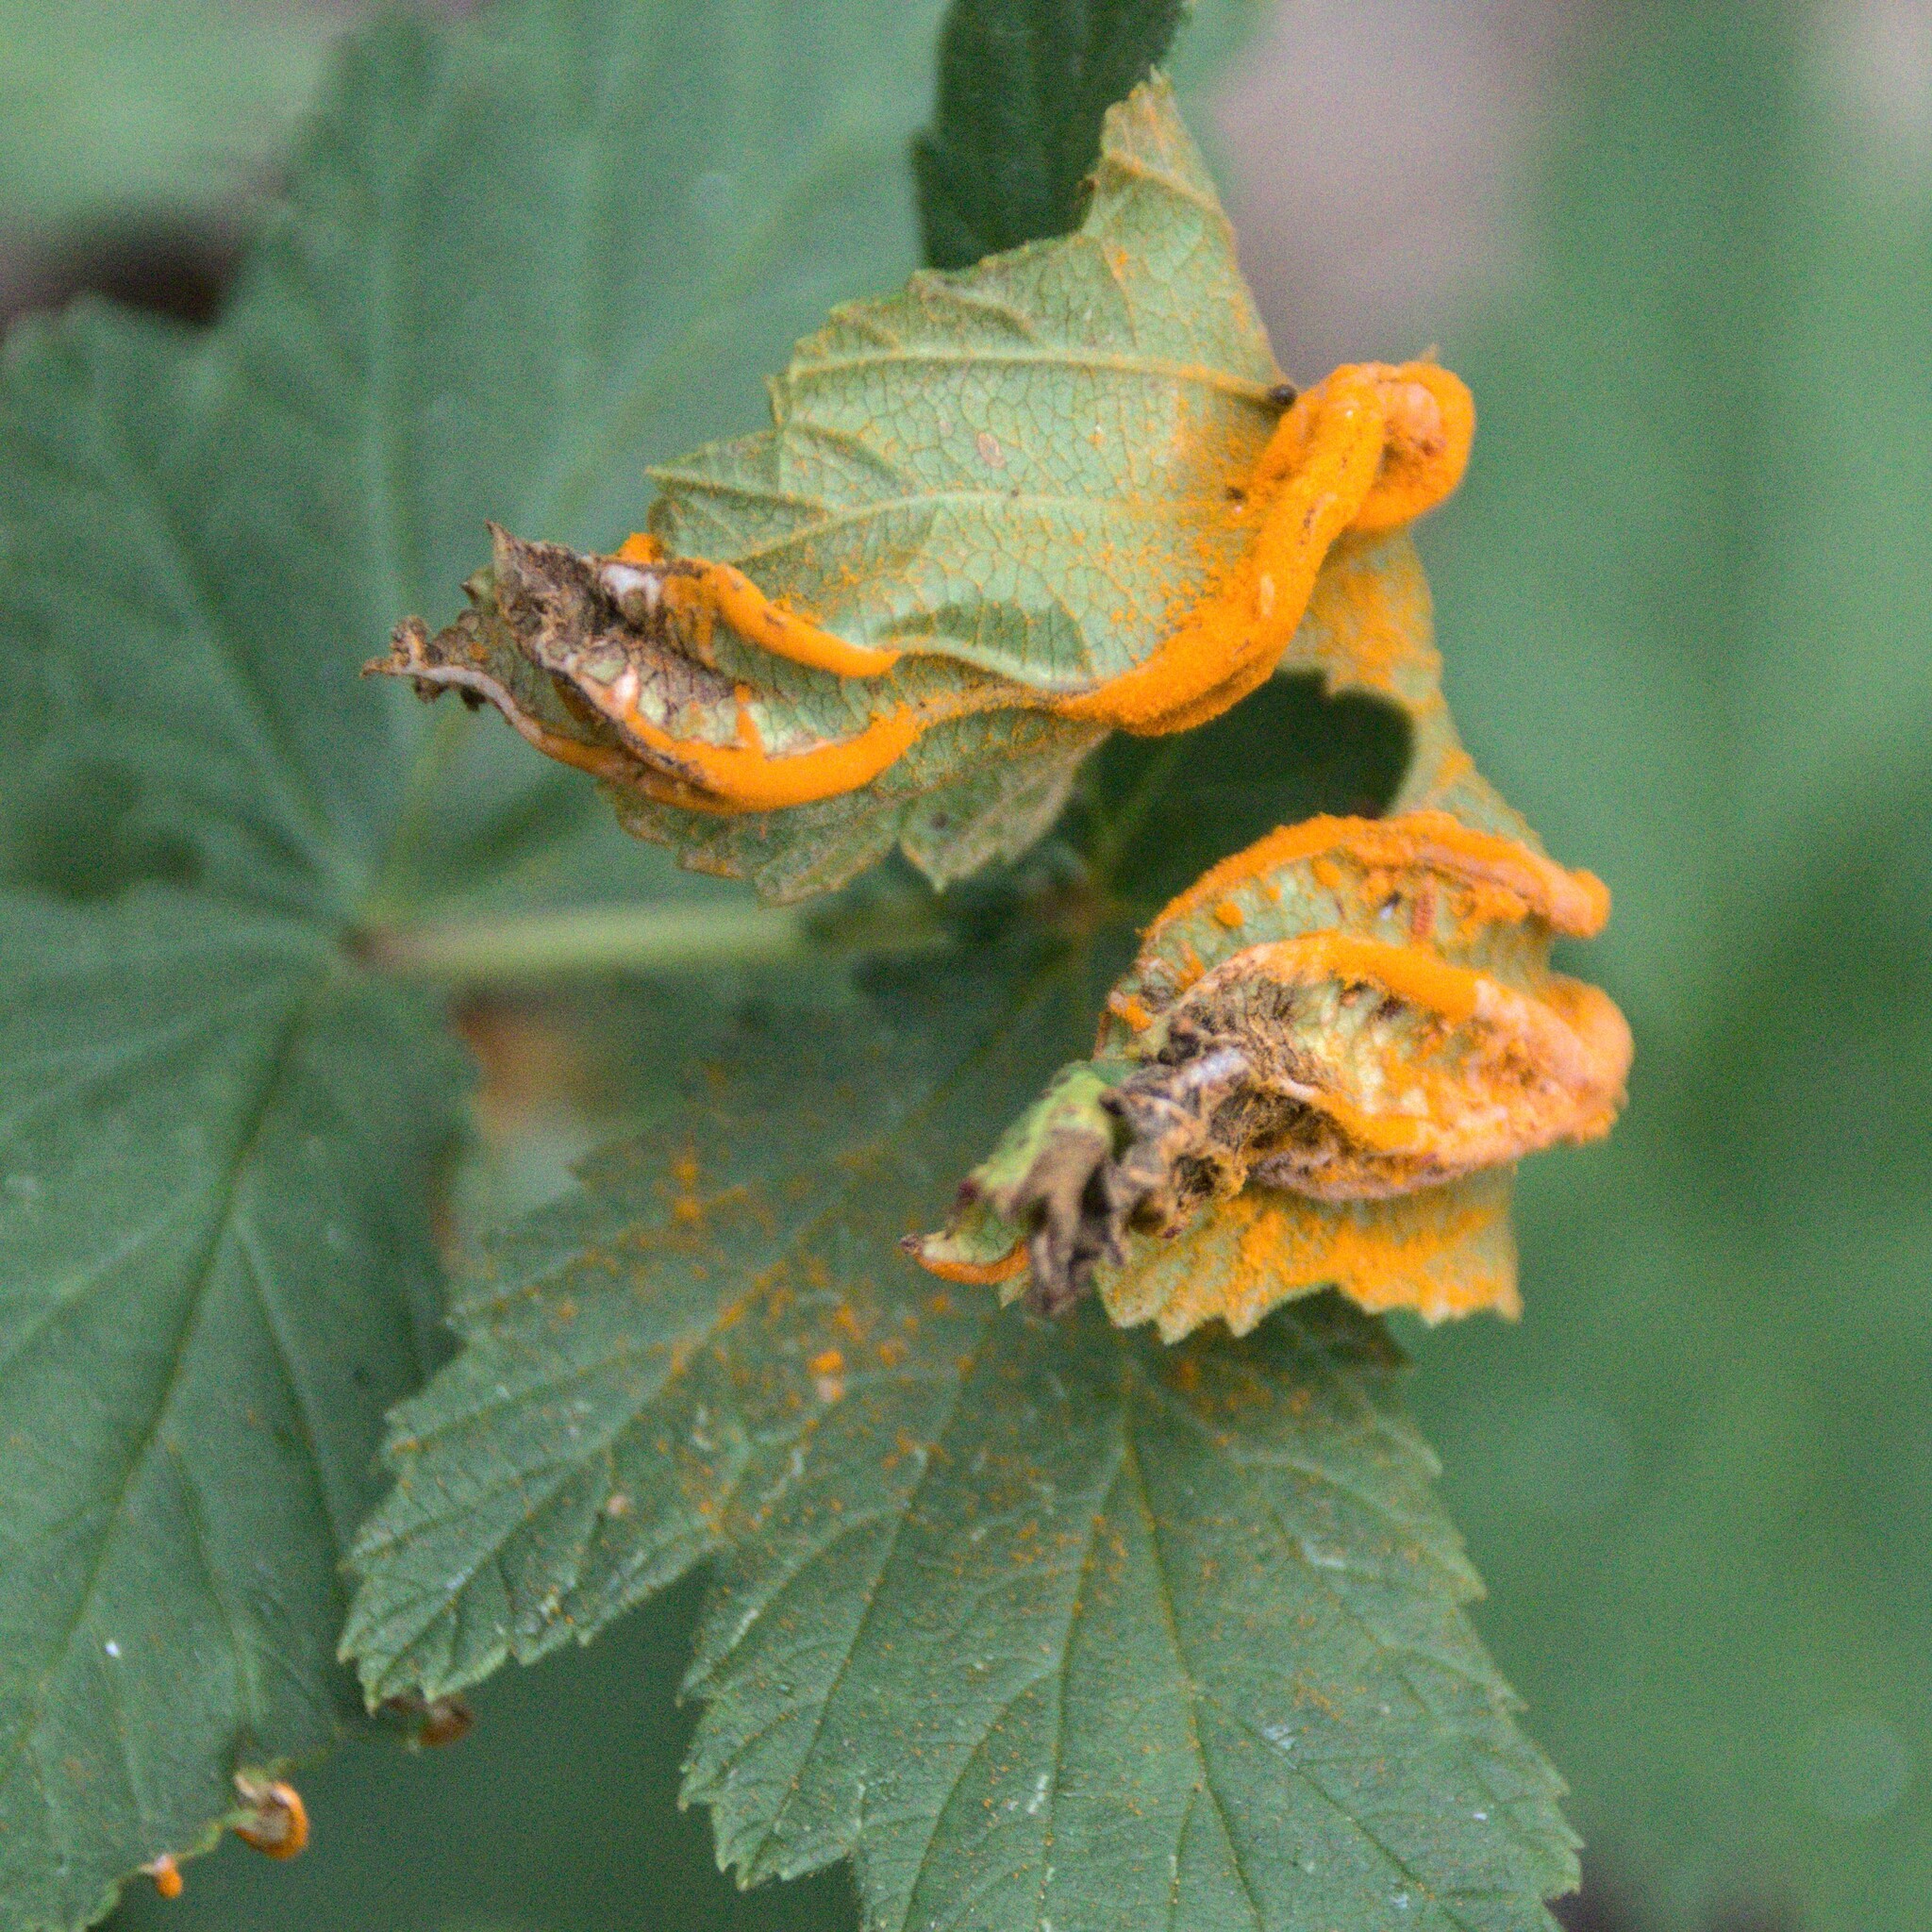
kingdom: Fungi
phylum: Basidiomycota
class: Pucciniomycetes
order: Pucciniales
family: Raveneliaceae
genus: Triphragmium
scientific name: Triphragmium ulmariae
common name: Meadowsweet rust
